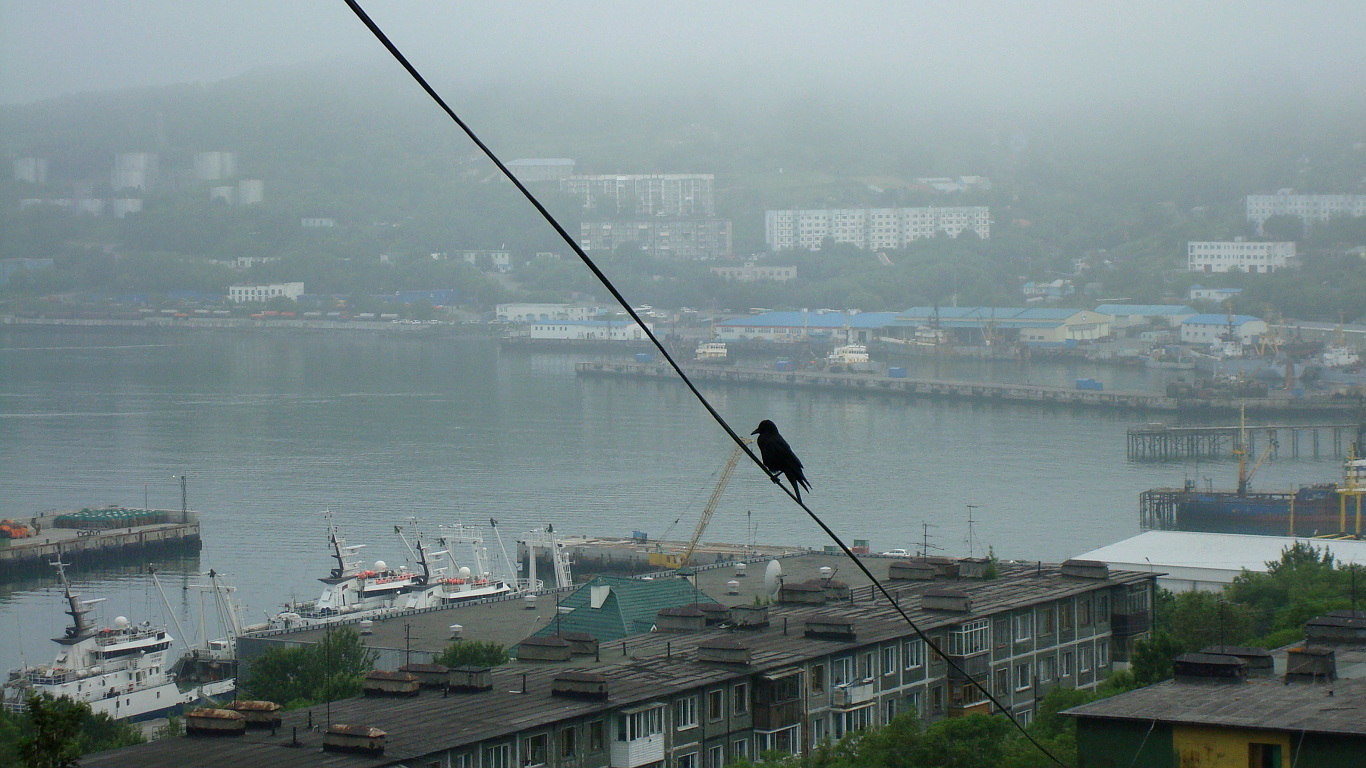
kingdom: Animalia
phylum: Chordata
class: Aves
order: Passeriformes
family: Corvidae
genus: Corvus
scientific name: Corvus corone
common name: Carrion crow
